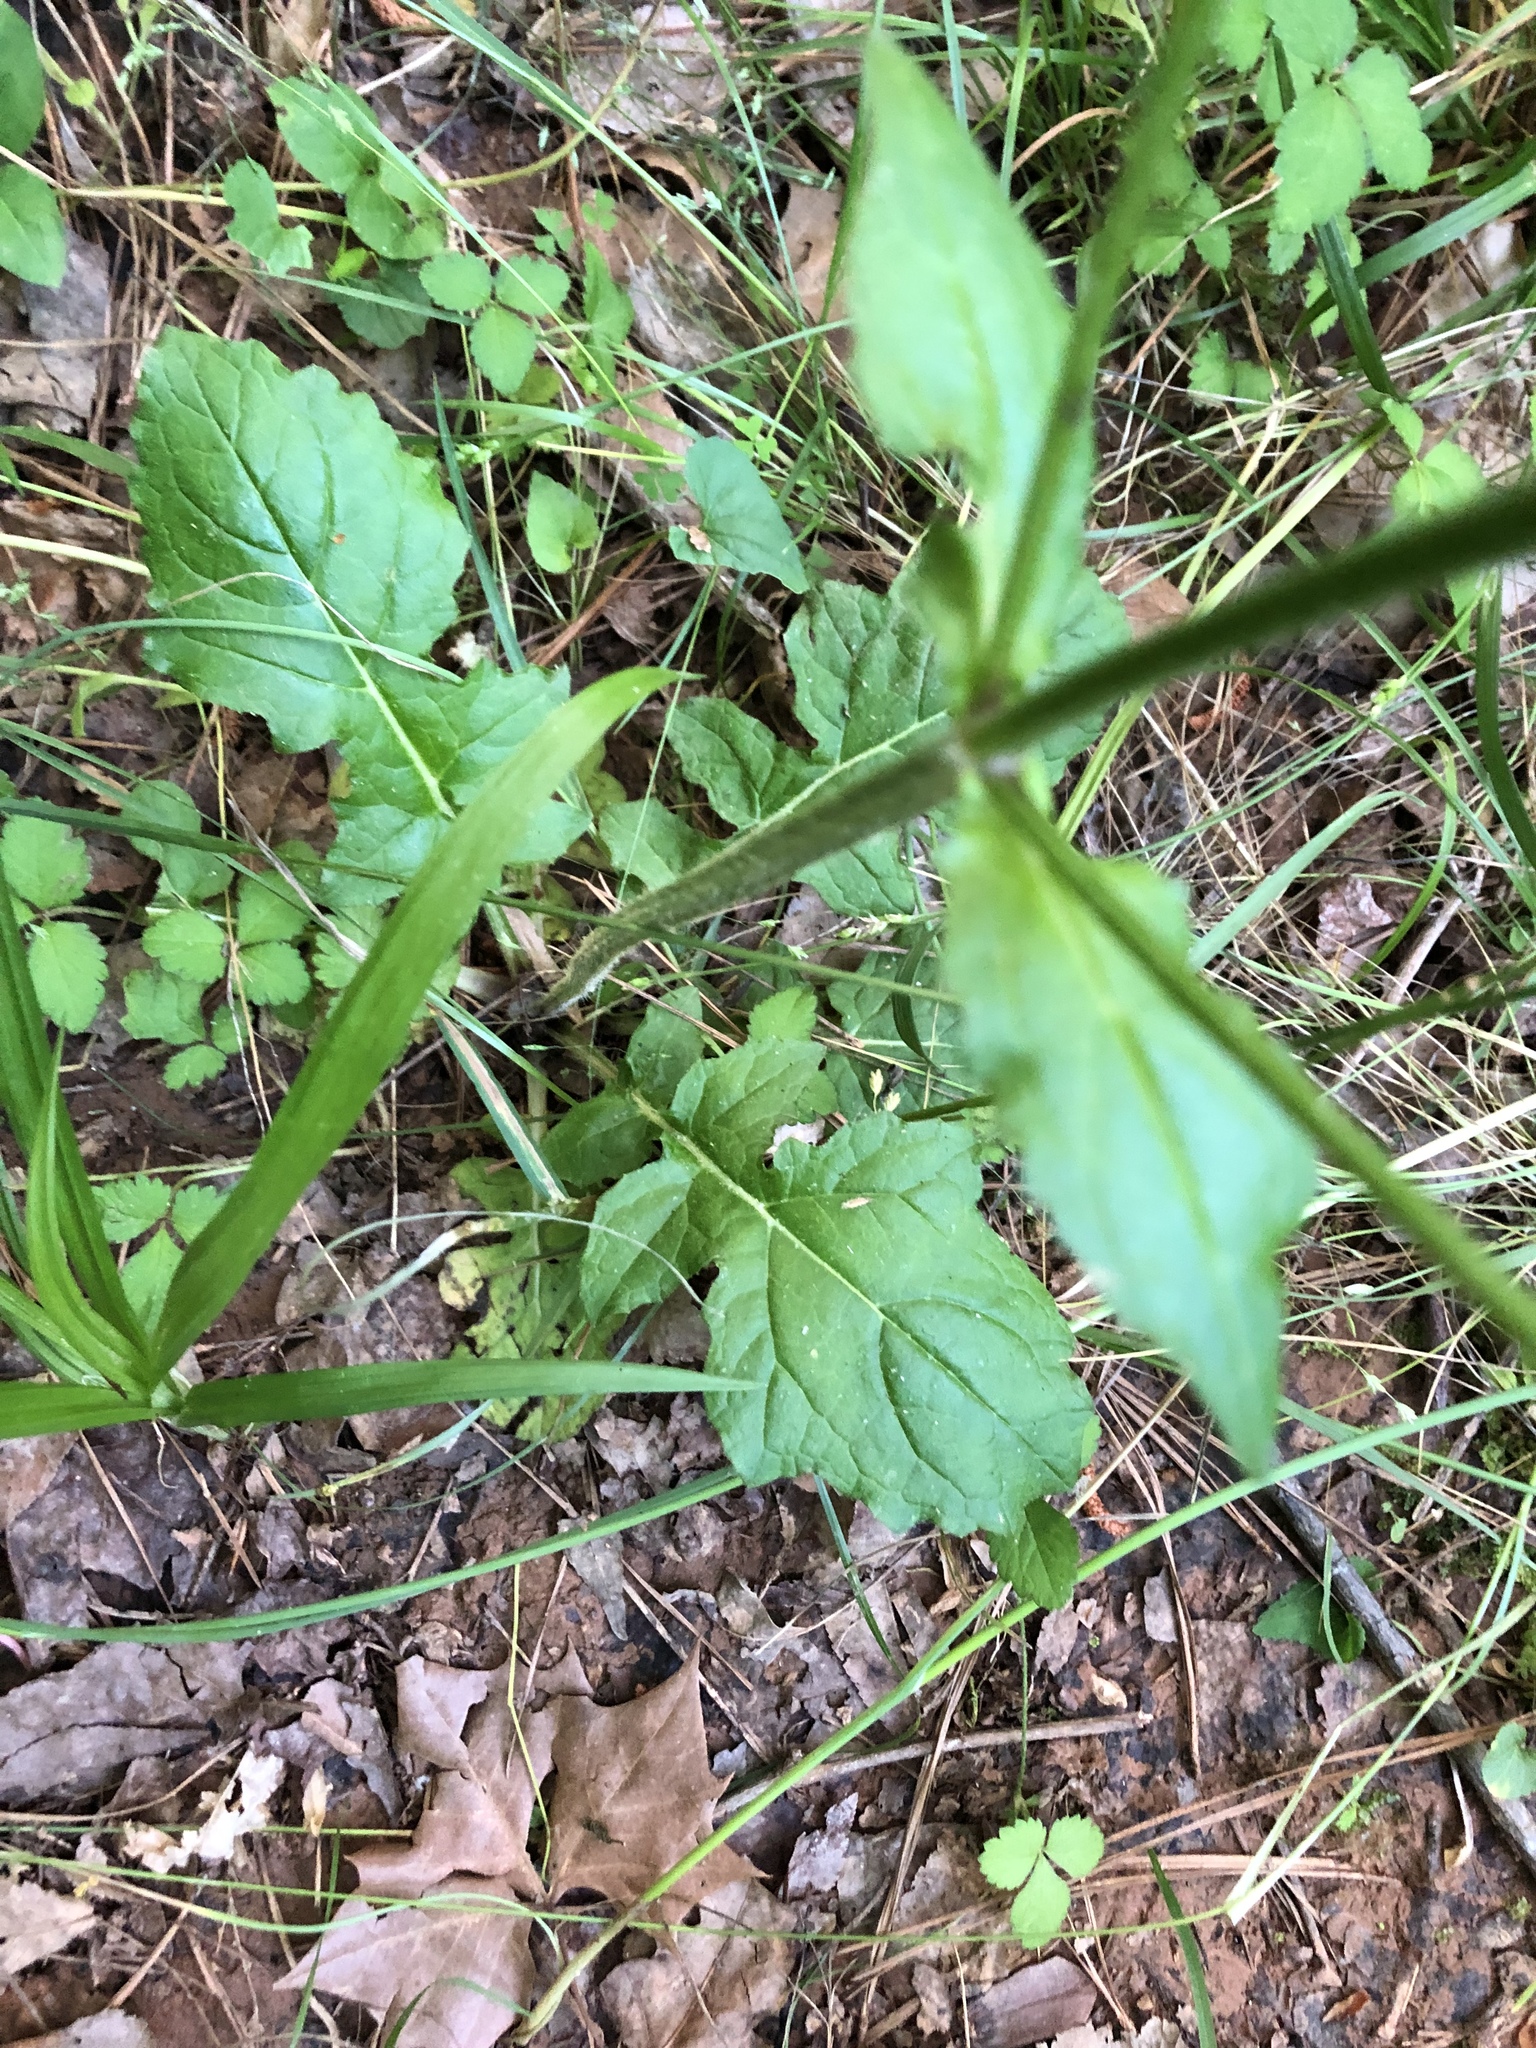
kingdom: Plantae
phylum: Tracheophyta
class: Magnoliopsida
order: Lamiales
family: Lamiaceae
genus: Salvia
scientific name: Salvia lyrata
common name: Cancerweed
